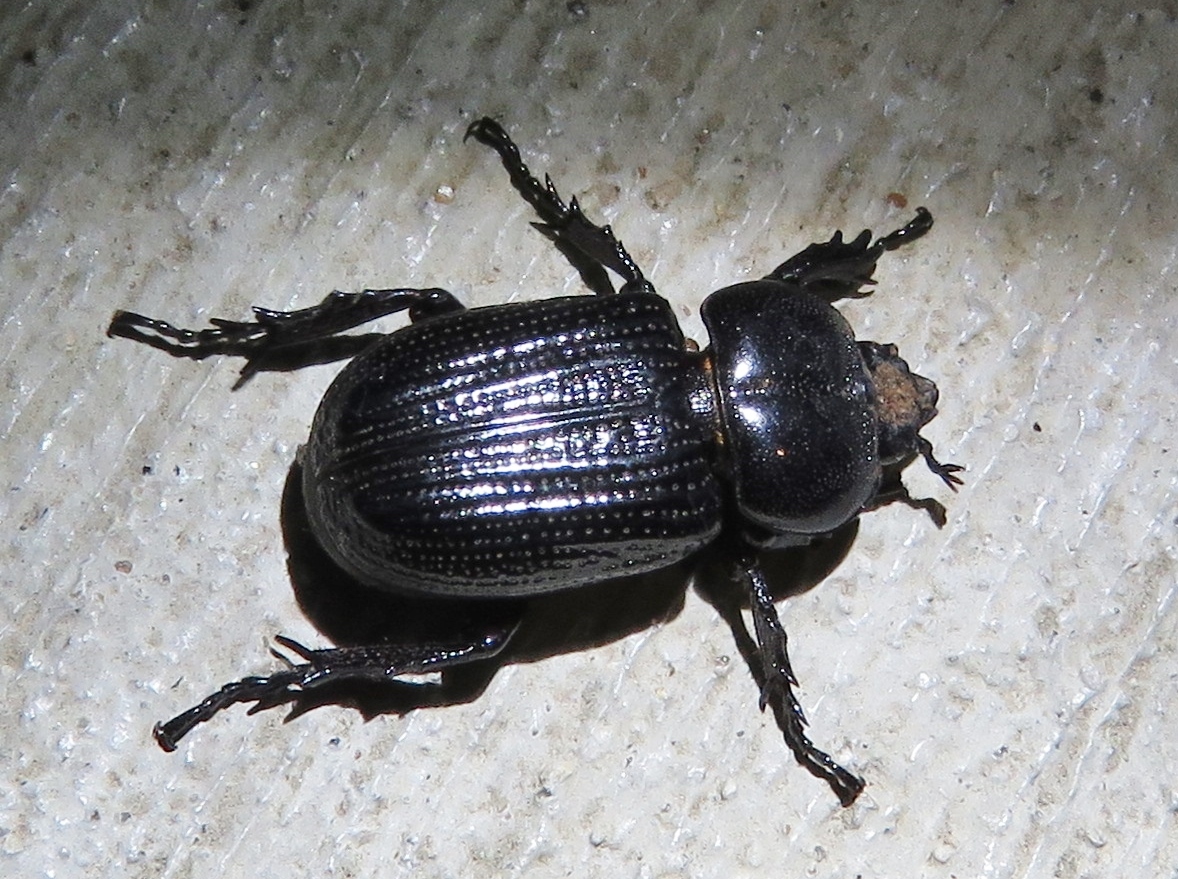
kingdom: Animalia
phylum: Arthropoda
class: Insecta
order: Coleoptera
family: Scarabaeidae
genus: Phileurus
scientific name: Phileurus valgus
